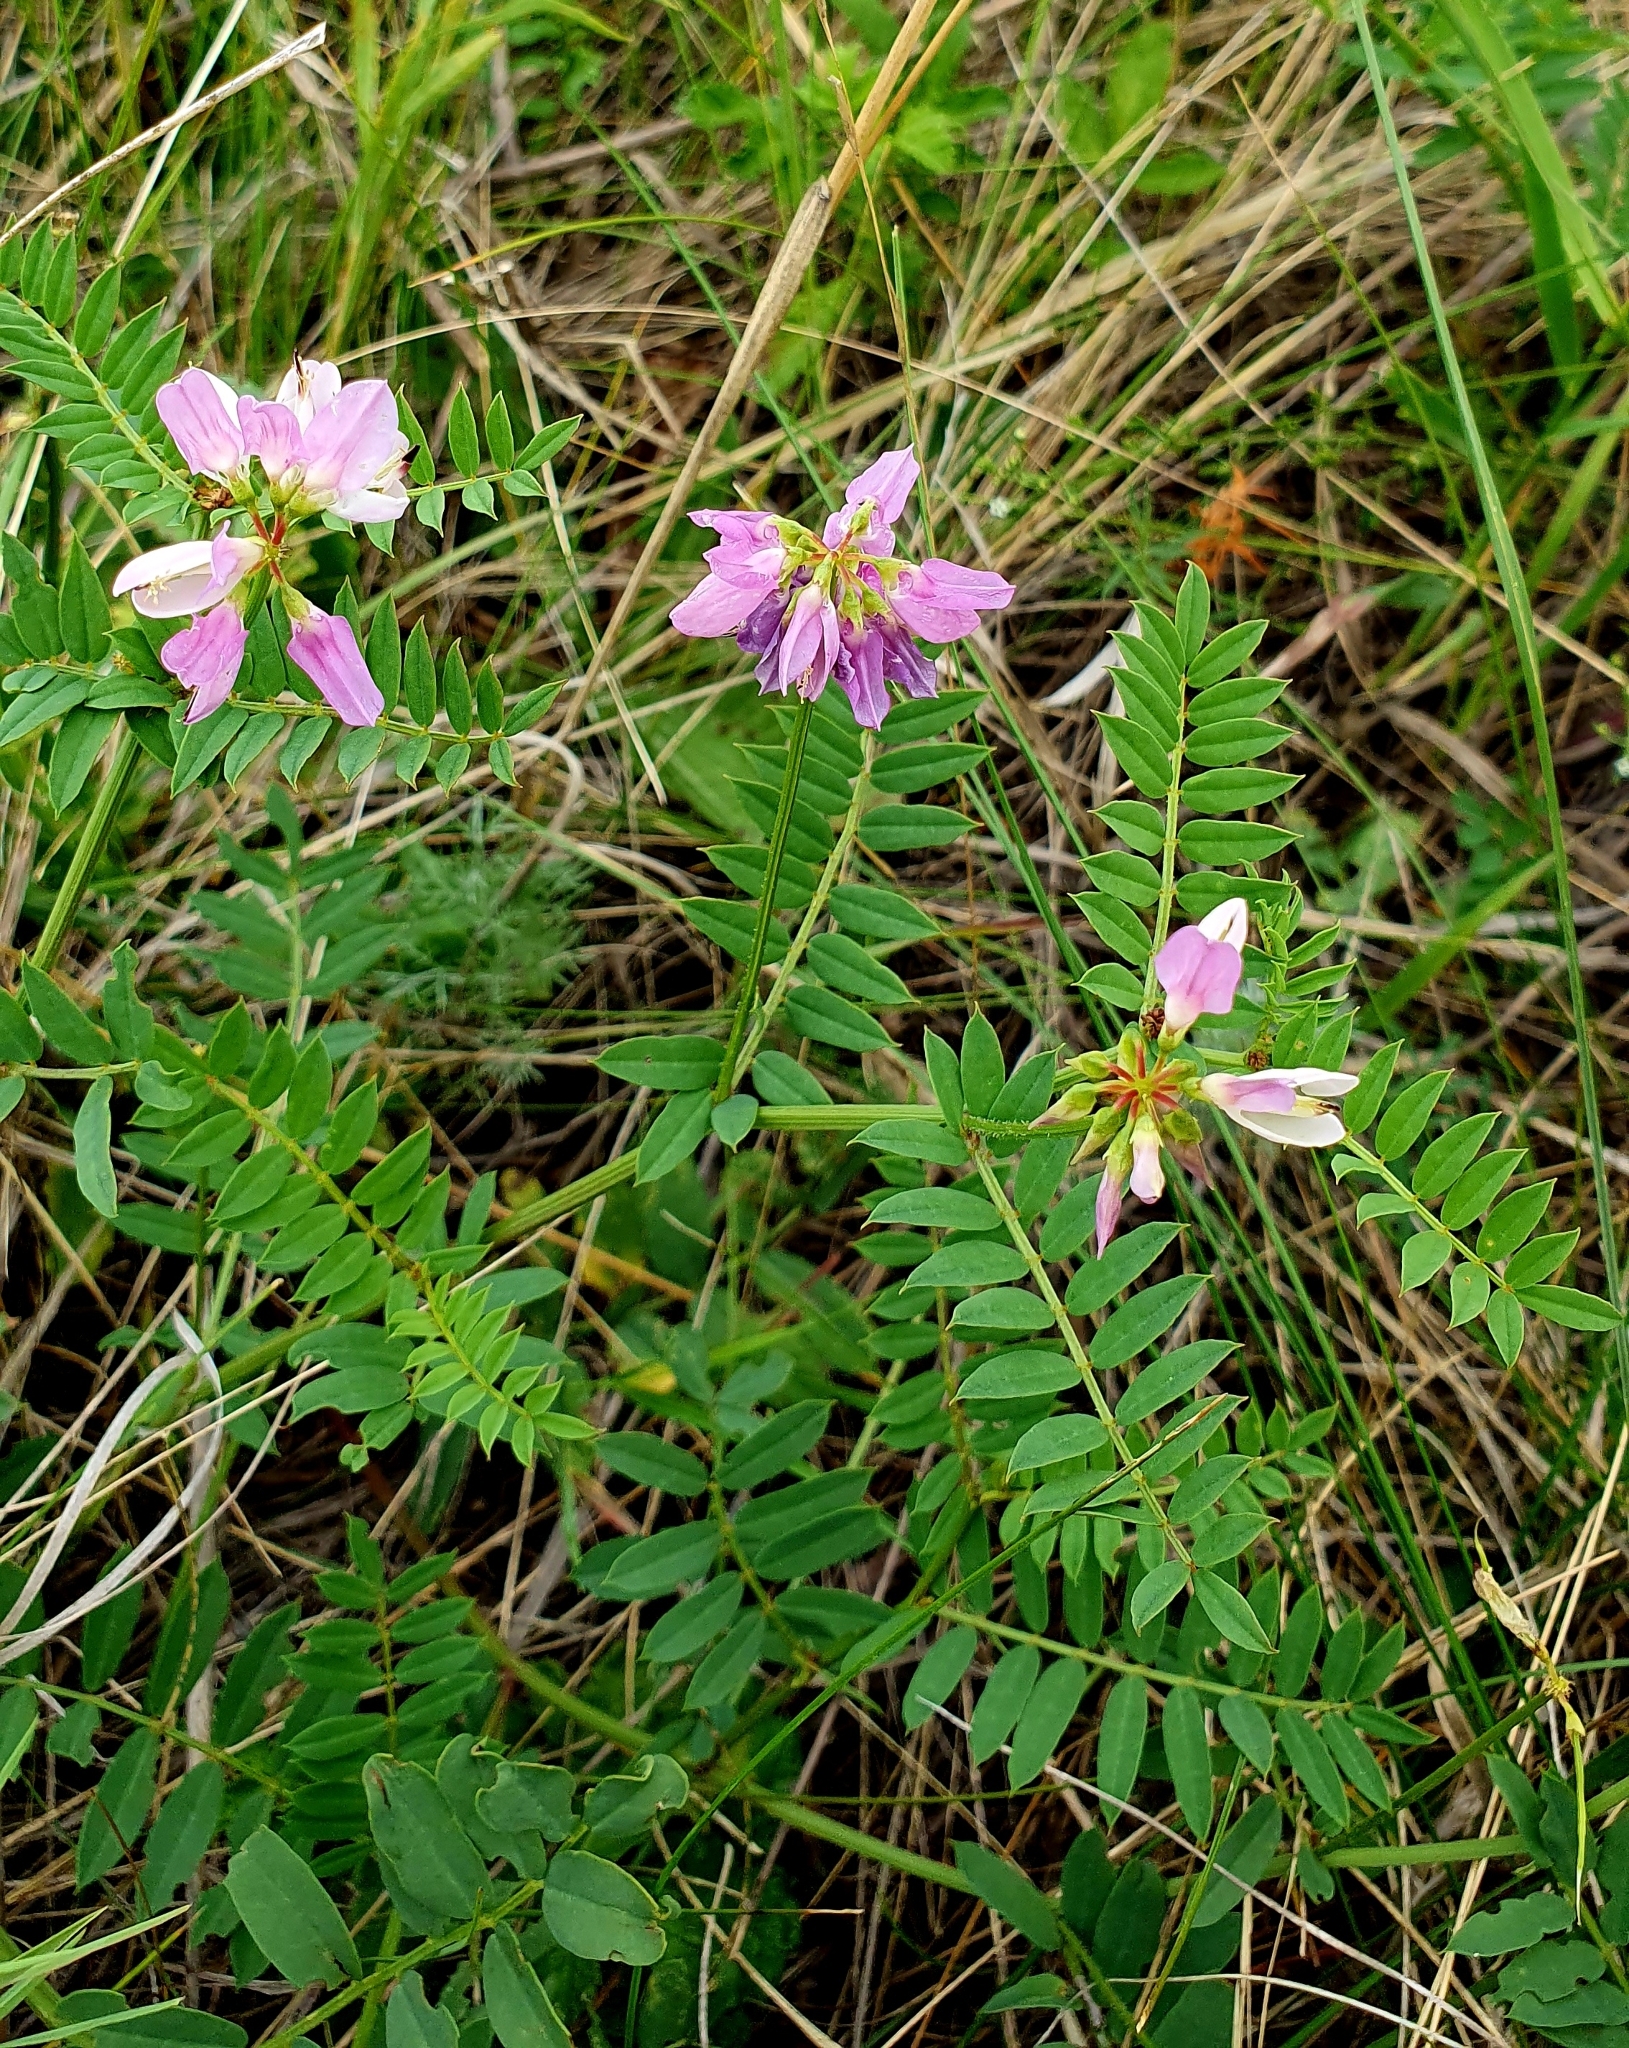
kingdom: Plantae
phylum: Tracheophyta
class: Magnoliopsida
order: Fabales
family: Fabaceae
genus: Coronilla
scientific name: Coronilla varia
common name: Crownvetch
